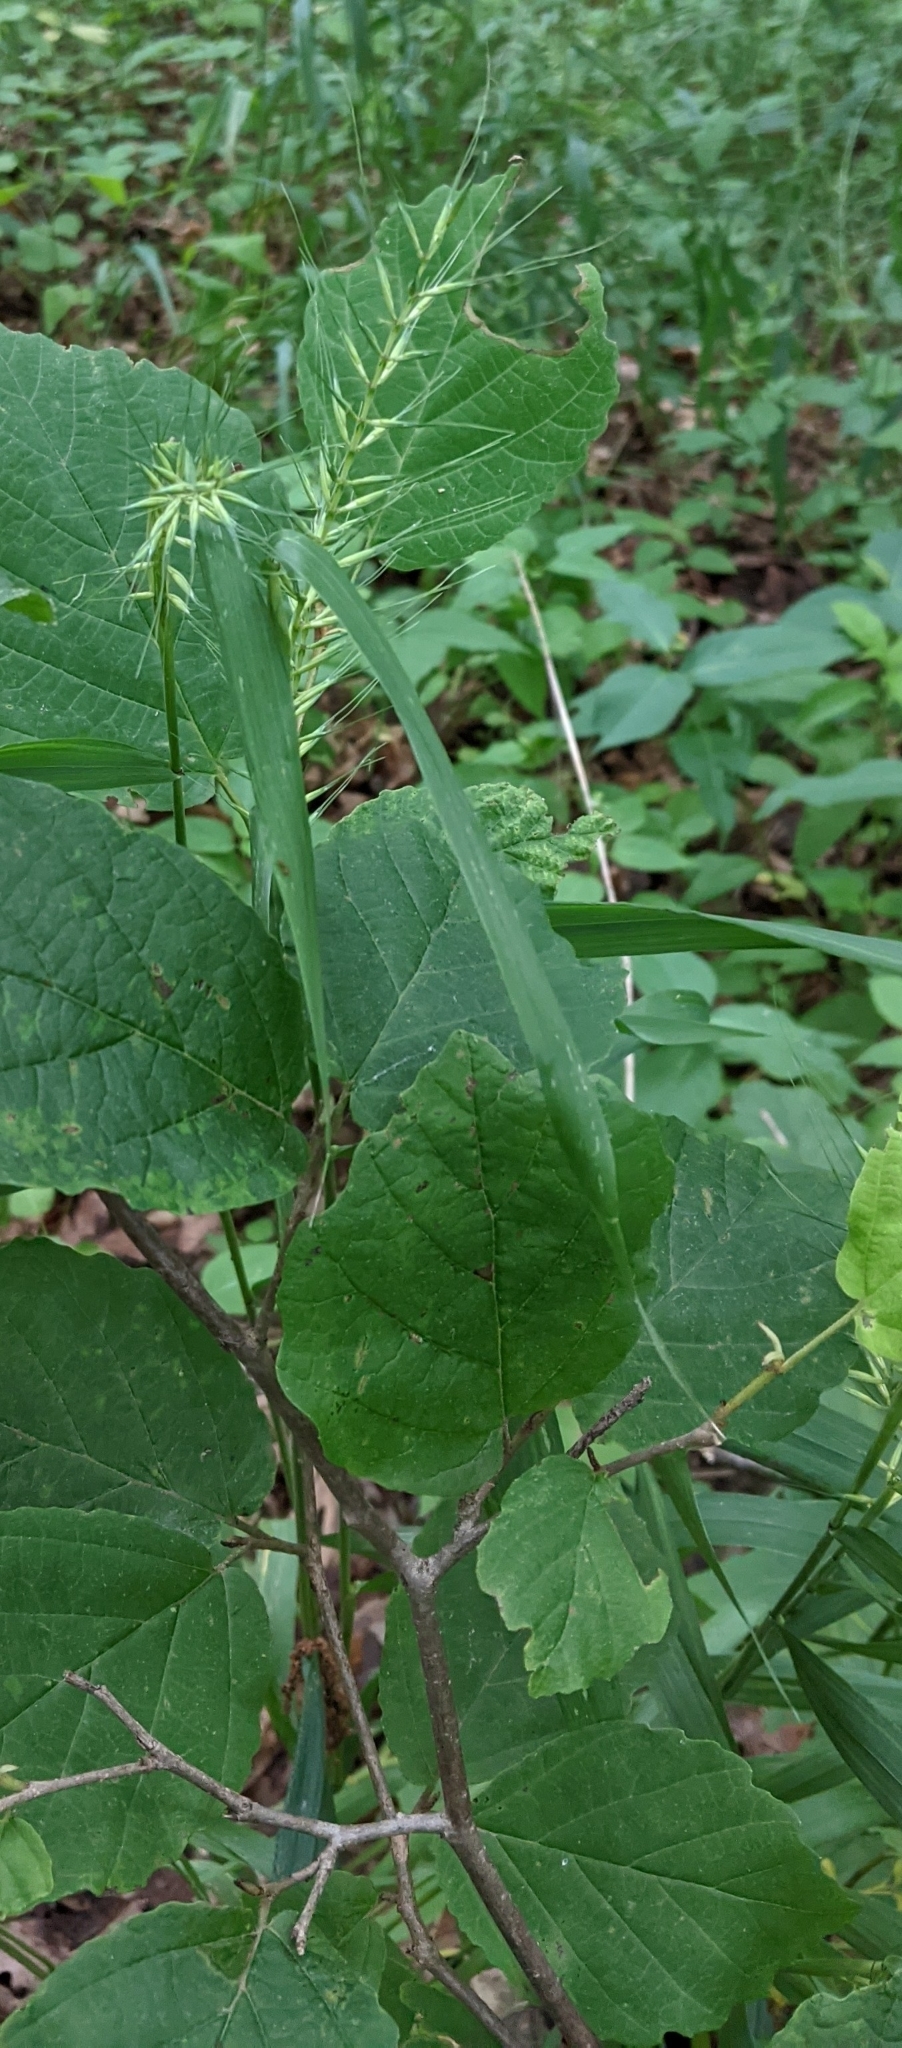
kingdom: Plantae
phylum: Tracheophyta
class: Liliopsida
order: Poales
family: Poaceae
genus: Elymus
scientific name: Elymus hystrix
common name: Bottlebrush grass
